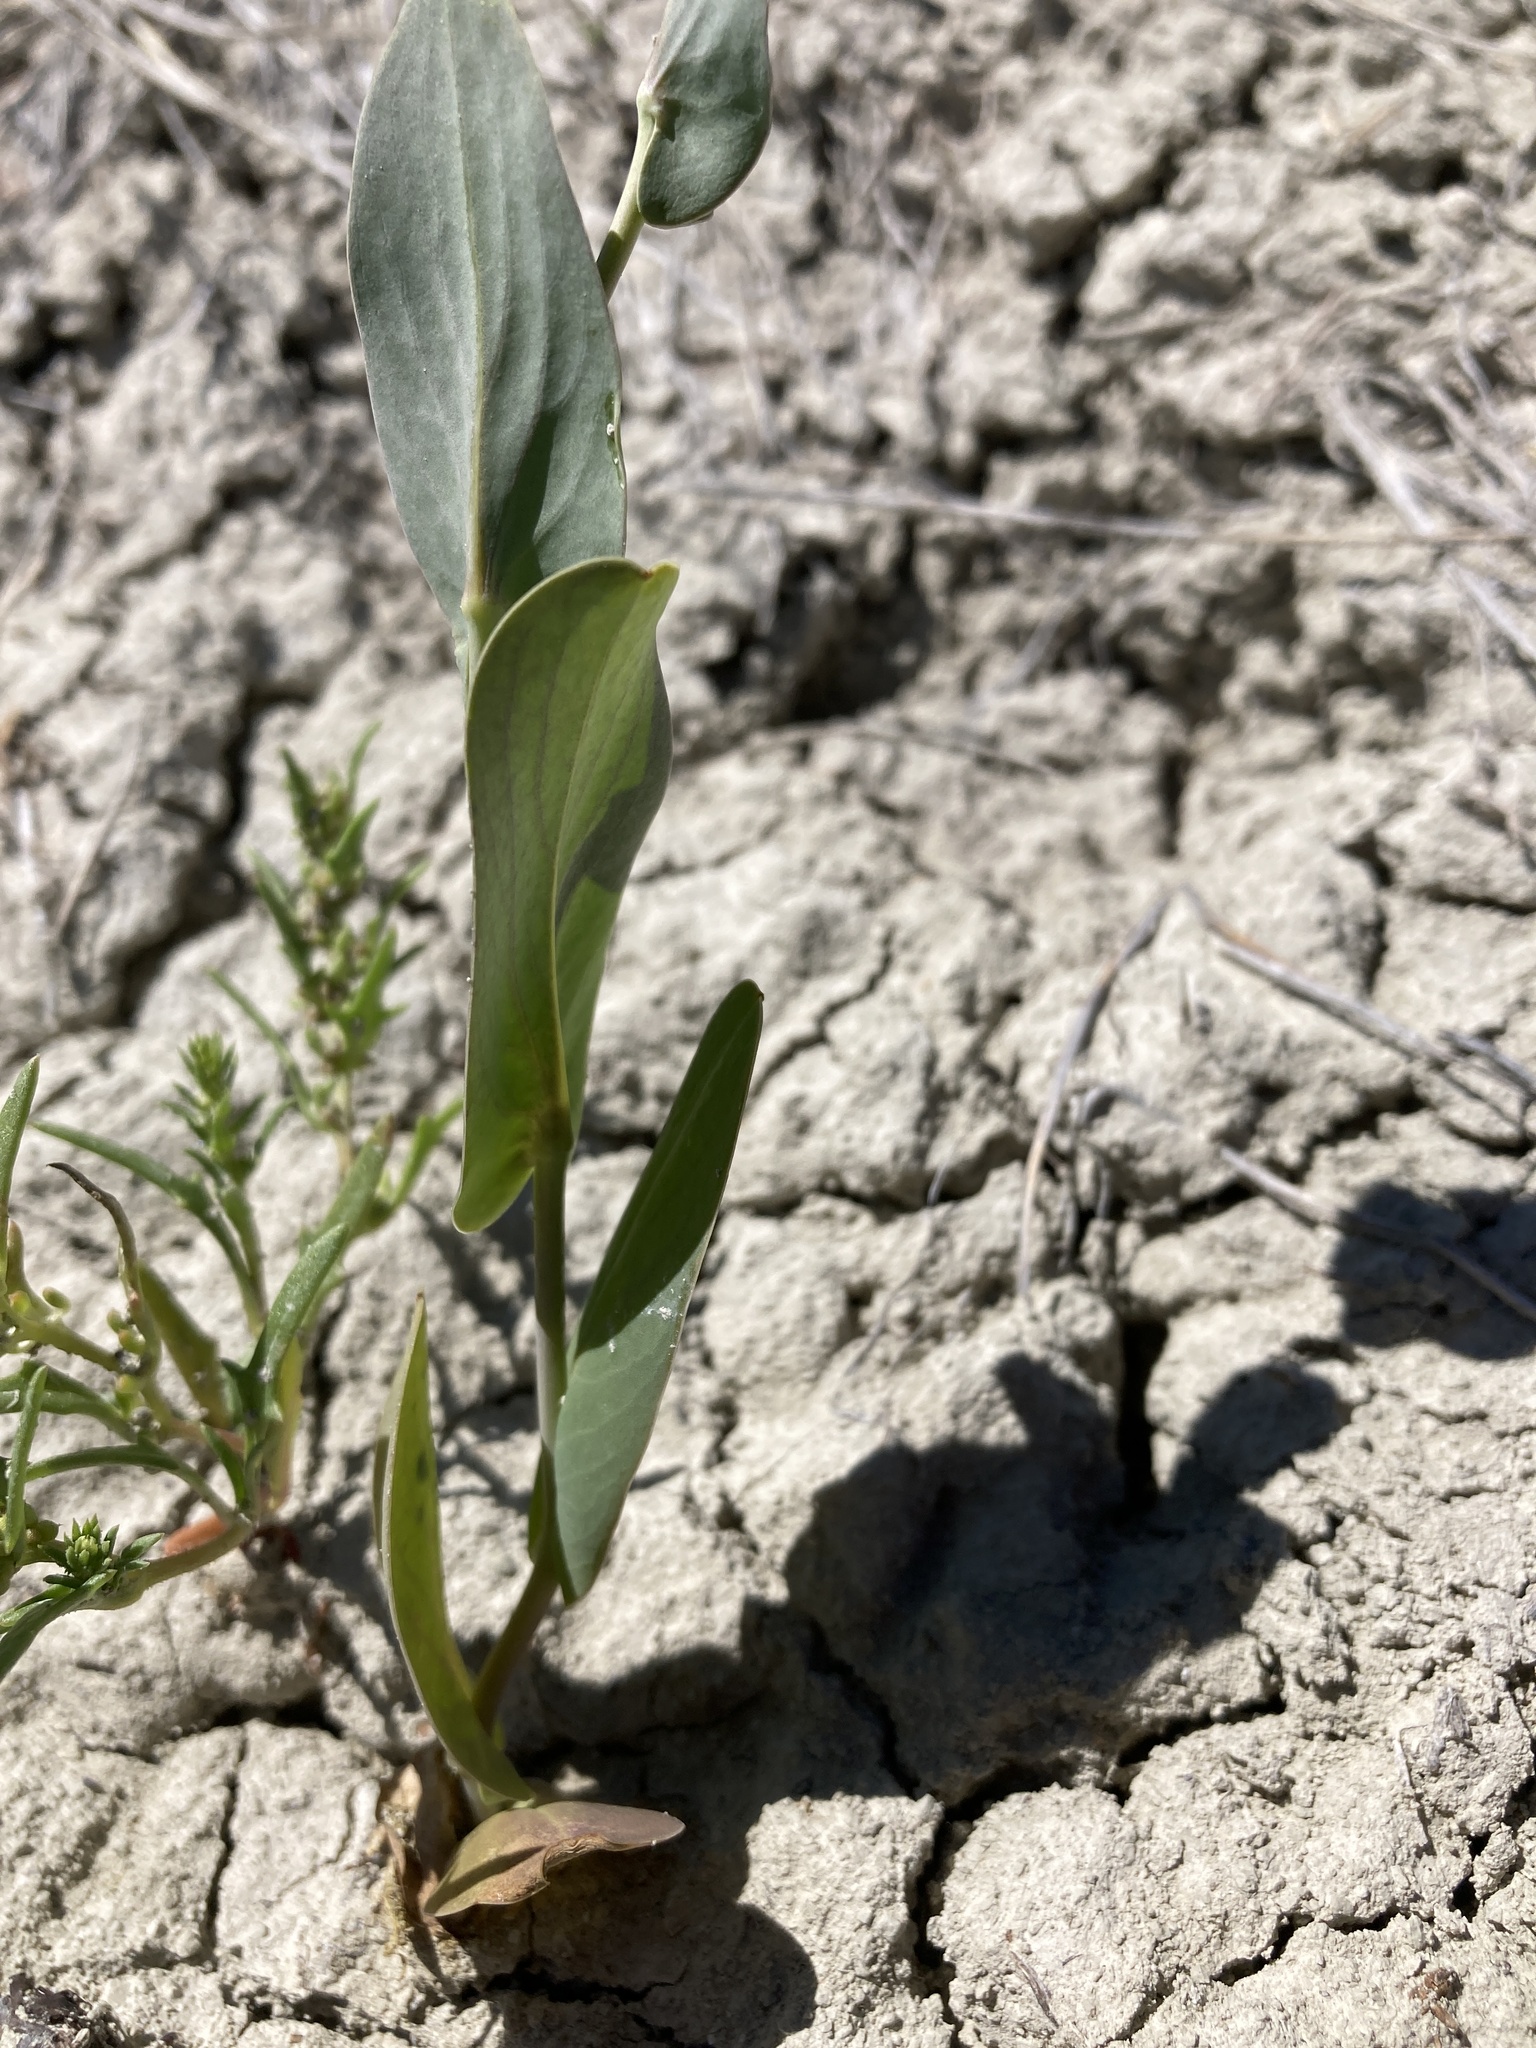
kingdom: Plantae
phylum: Tracheophyta
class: Magnoliopsida
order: Brassicales
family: Brassicaceae
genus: Conringia
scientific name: Conringia orientalis
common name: Hare's ear mustard
